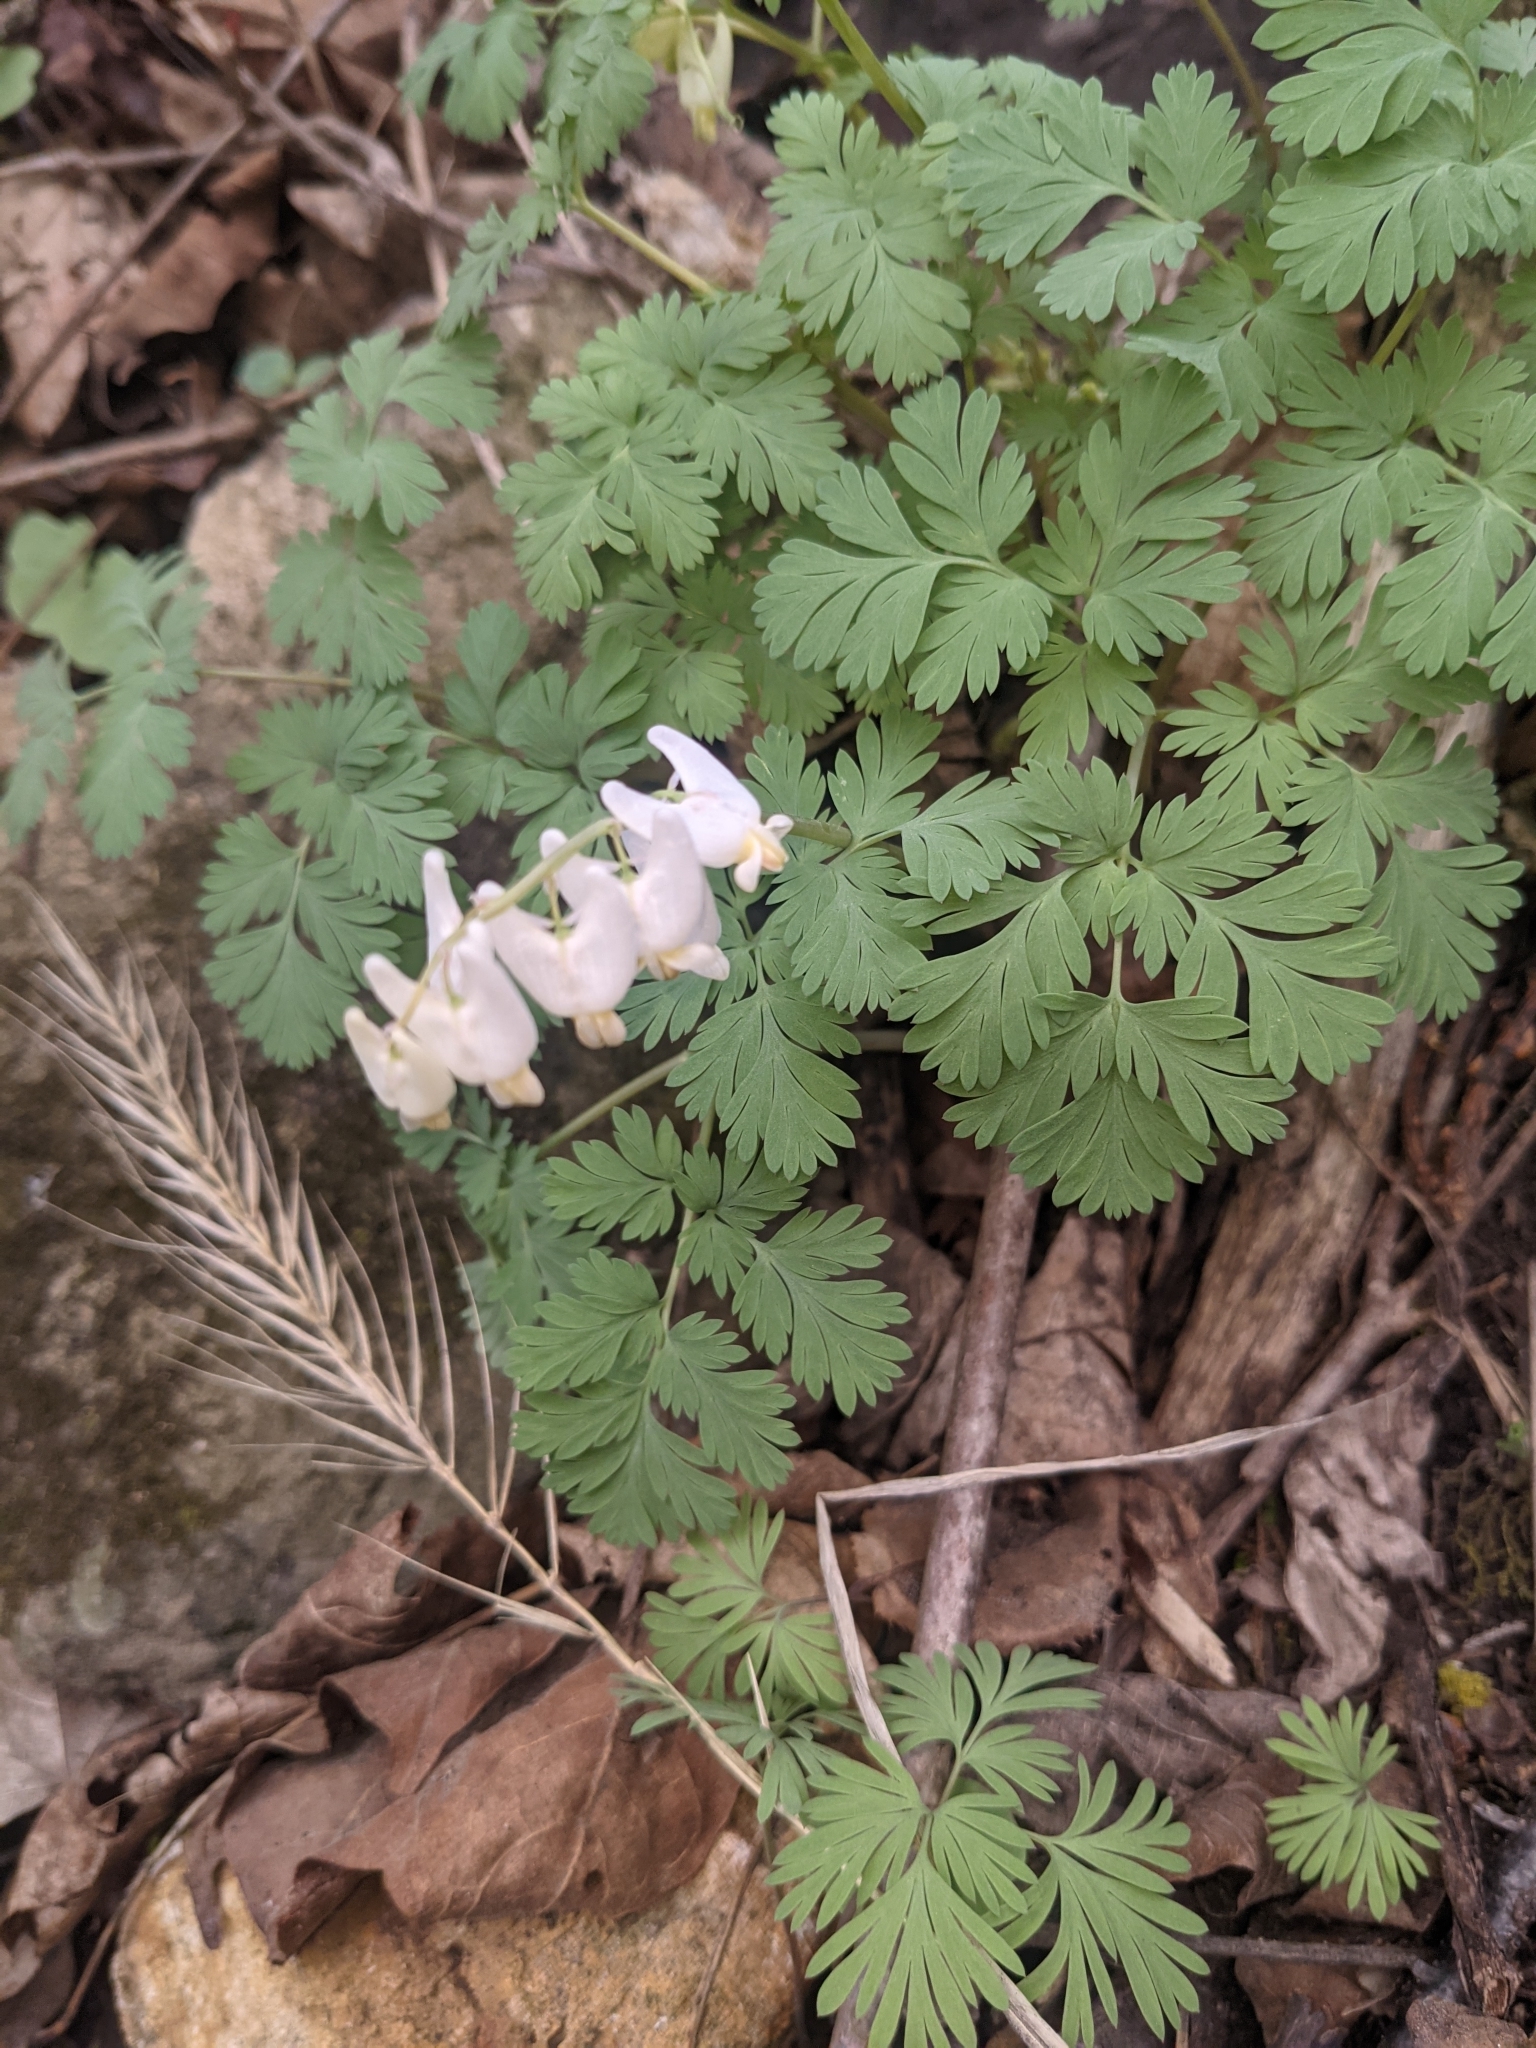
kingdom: Plantae
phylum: Tracheophyta
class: Magnoliopsida
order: Ranunculales
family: Papaveraceae
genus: Dicentra
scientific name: Dicentra cucullaria
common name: Dutchman's breeches
